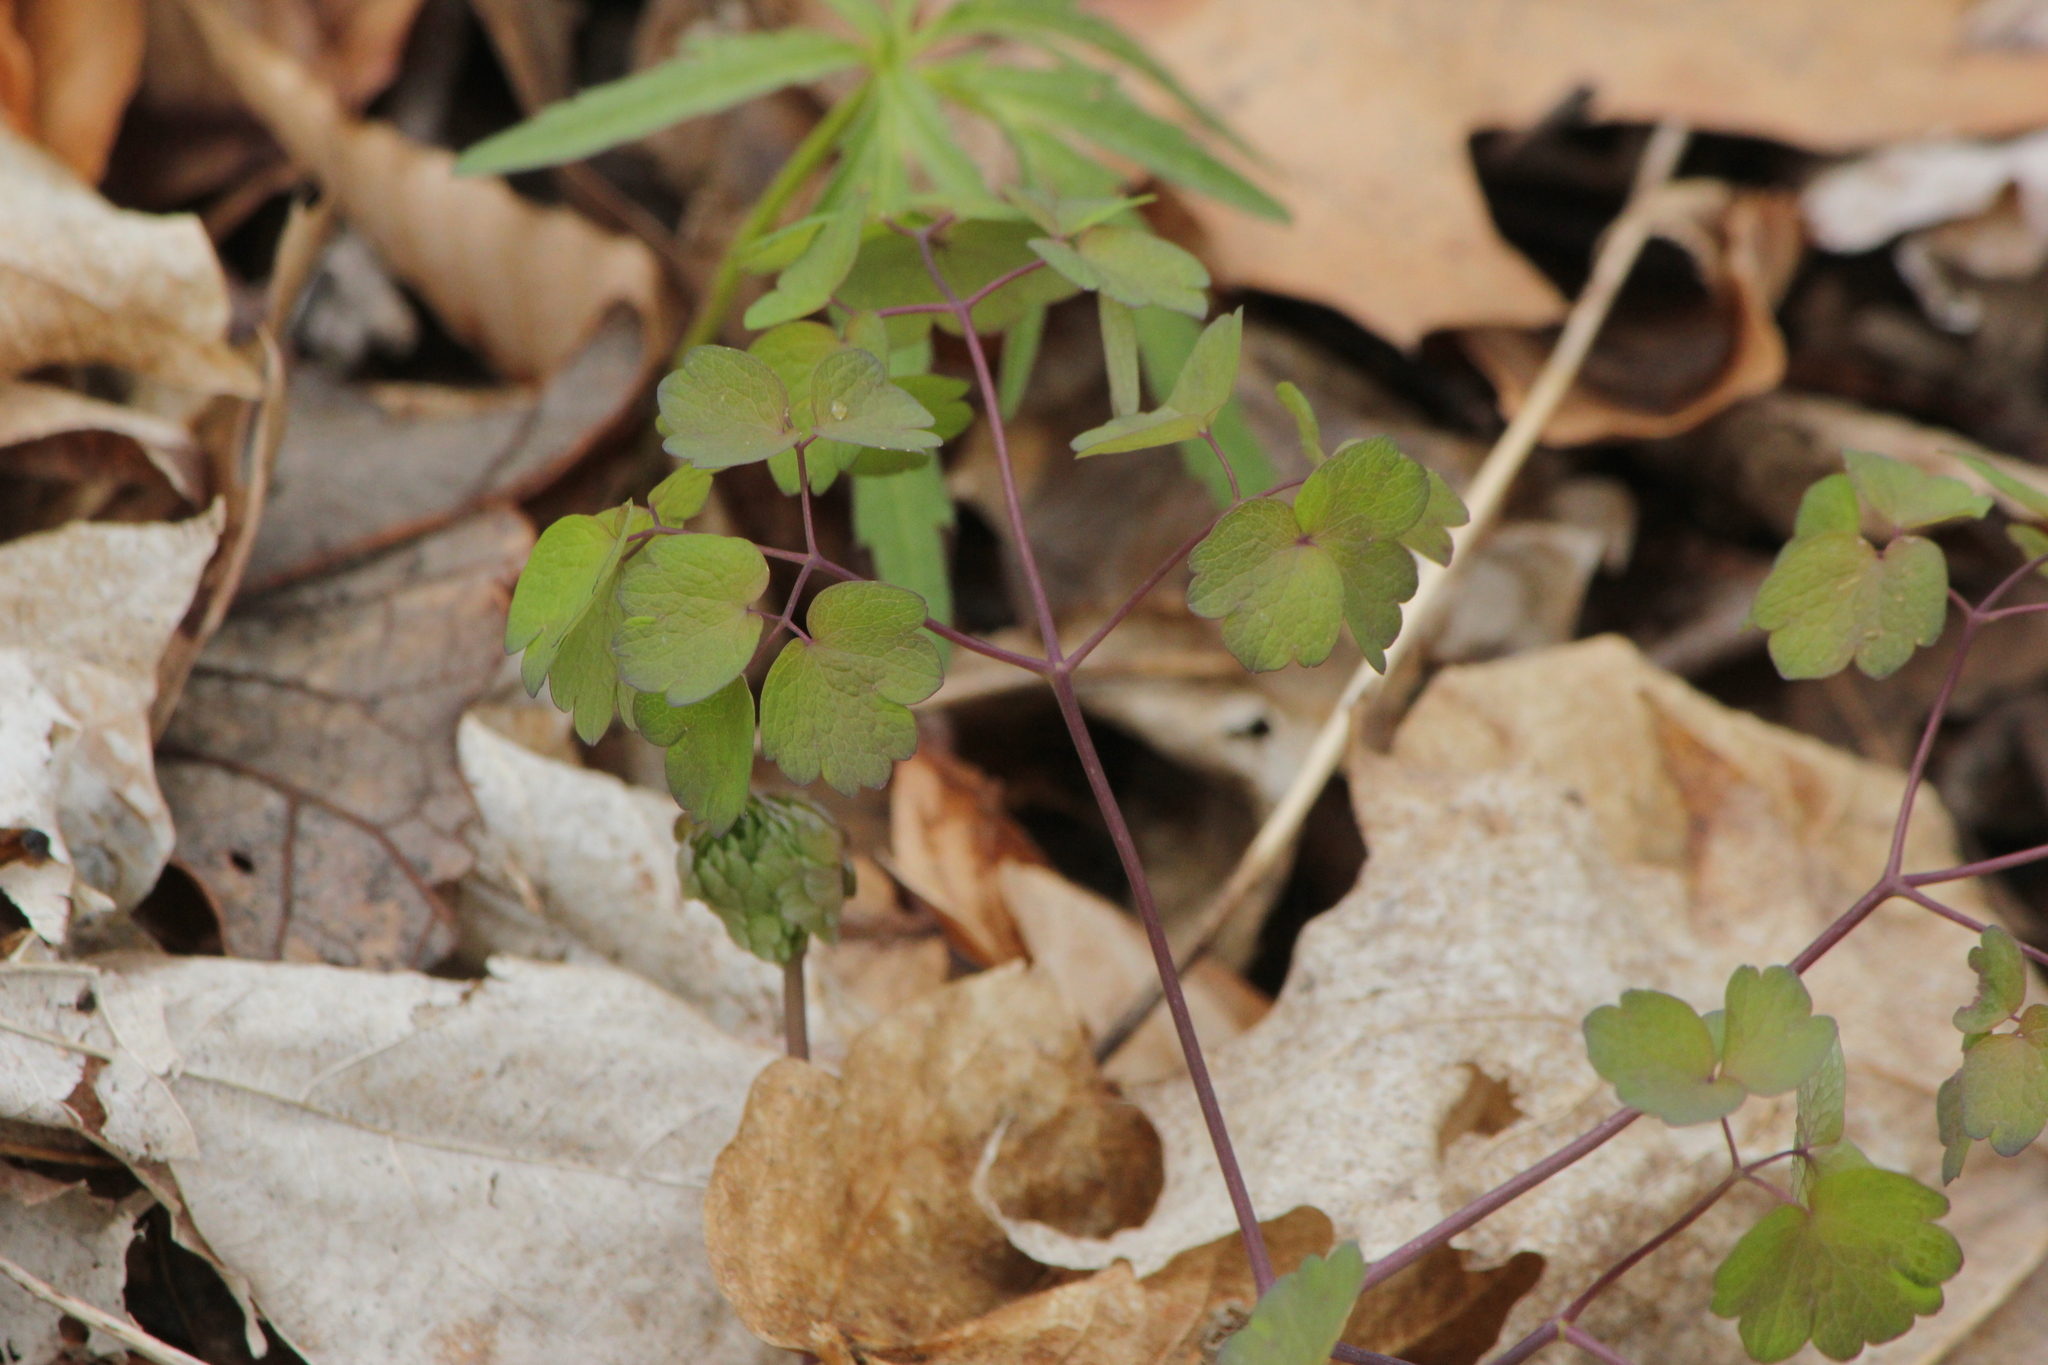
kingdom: Plantae
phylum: Tracheophyta
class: Magnoliopsida
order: Ranunculales
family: Ranunculaceae
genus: Thalictrum
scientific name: Thalictrum dioicum
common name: Early meadow-rue
